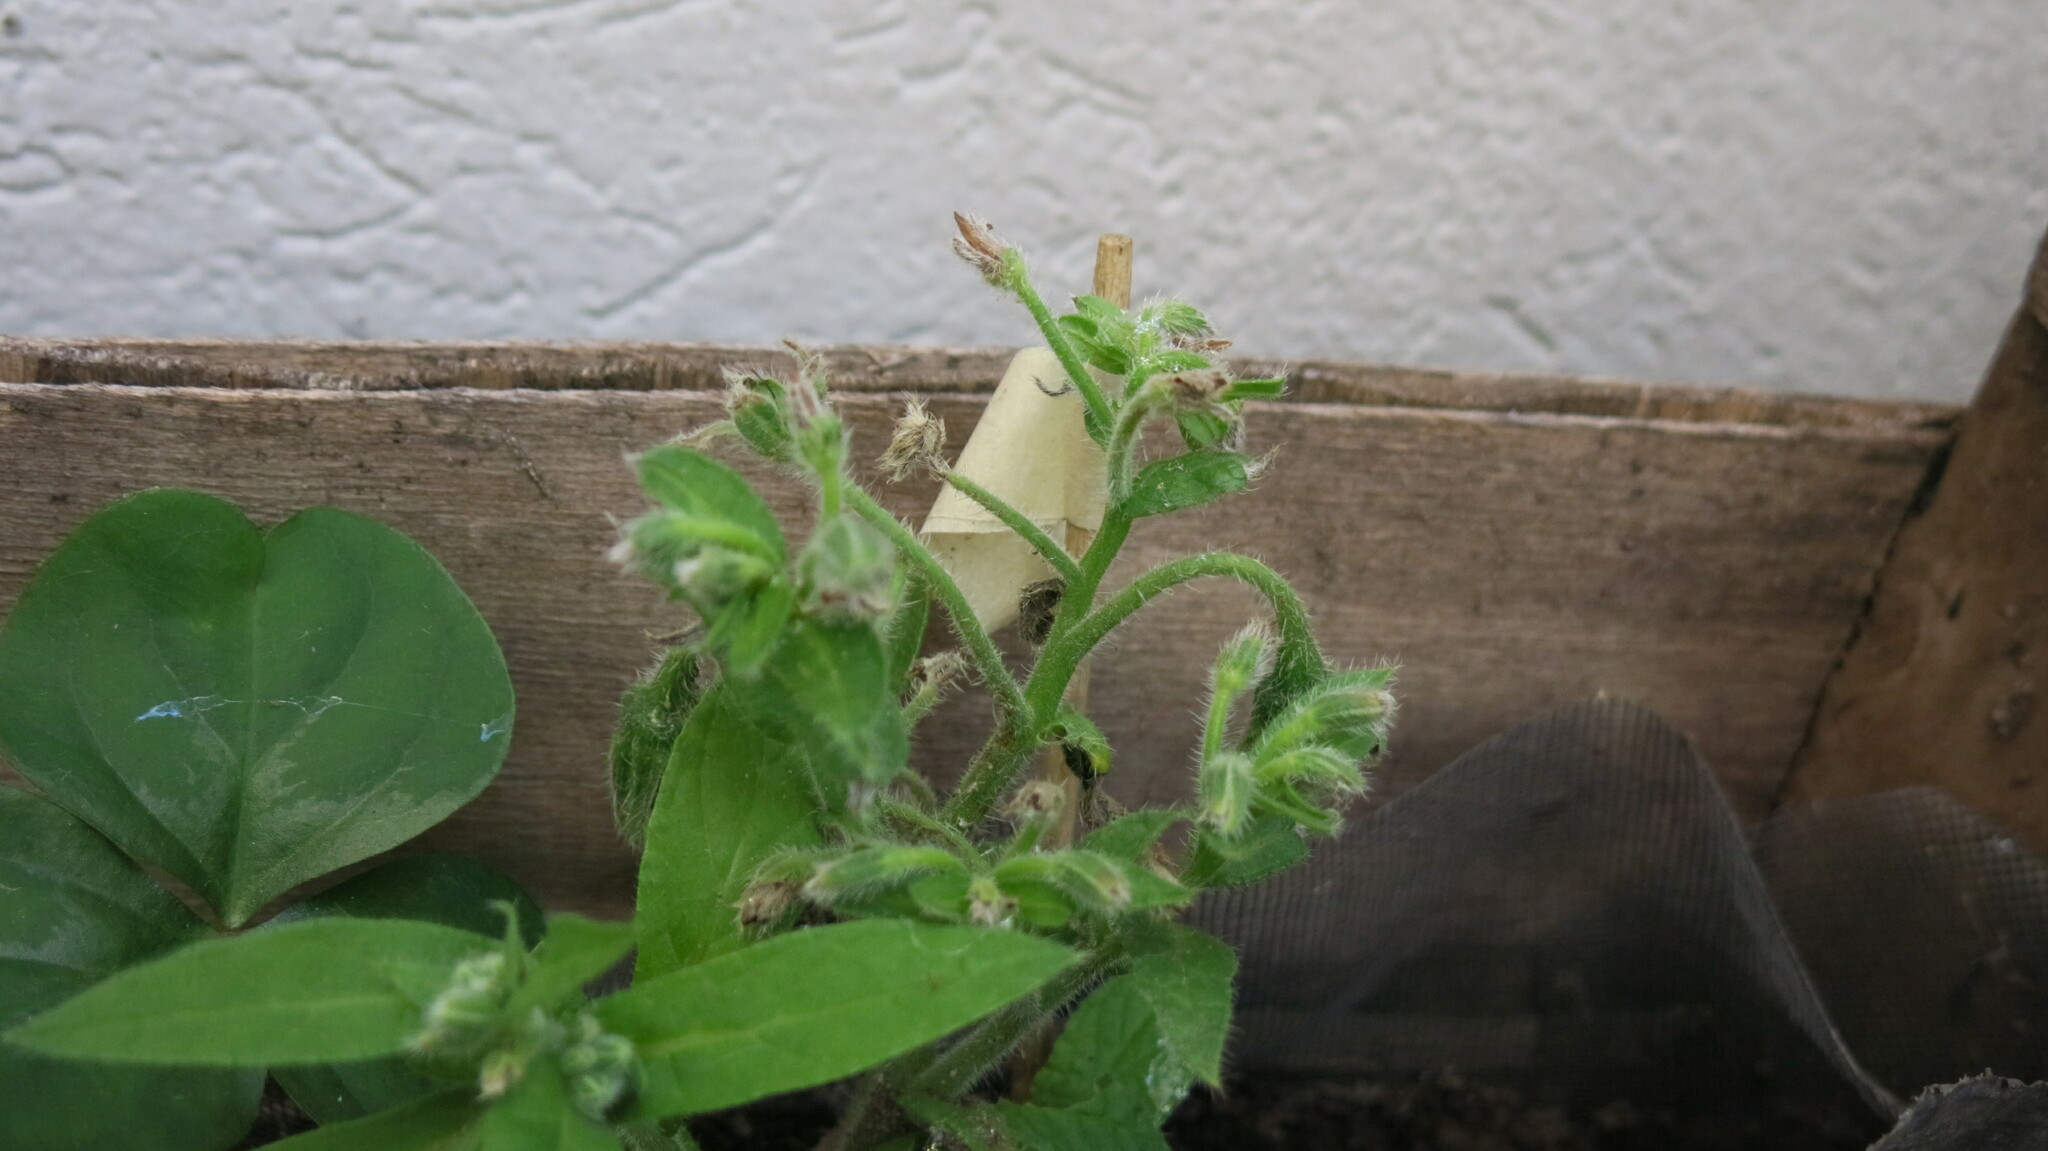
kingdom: Plantae
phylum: Tracheophyta
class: Magnoliopsida
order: Boraginales
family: Boraginaceae
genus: Borago
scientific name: Borago officinalis
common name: Borage
